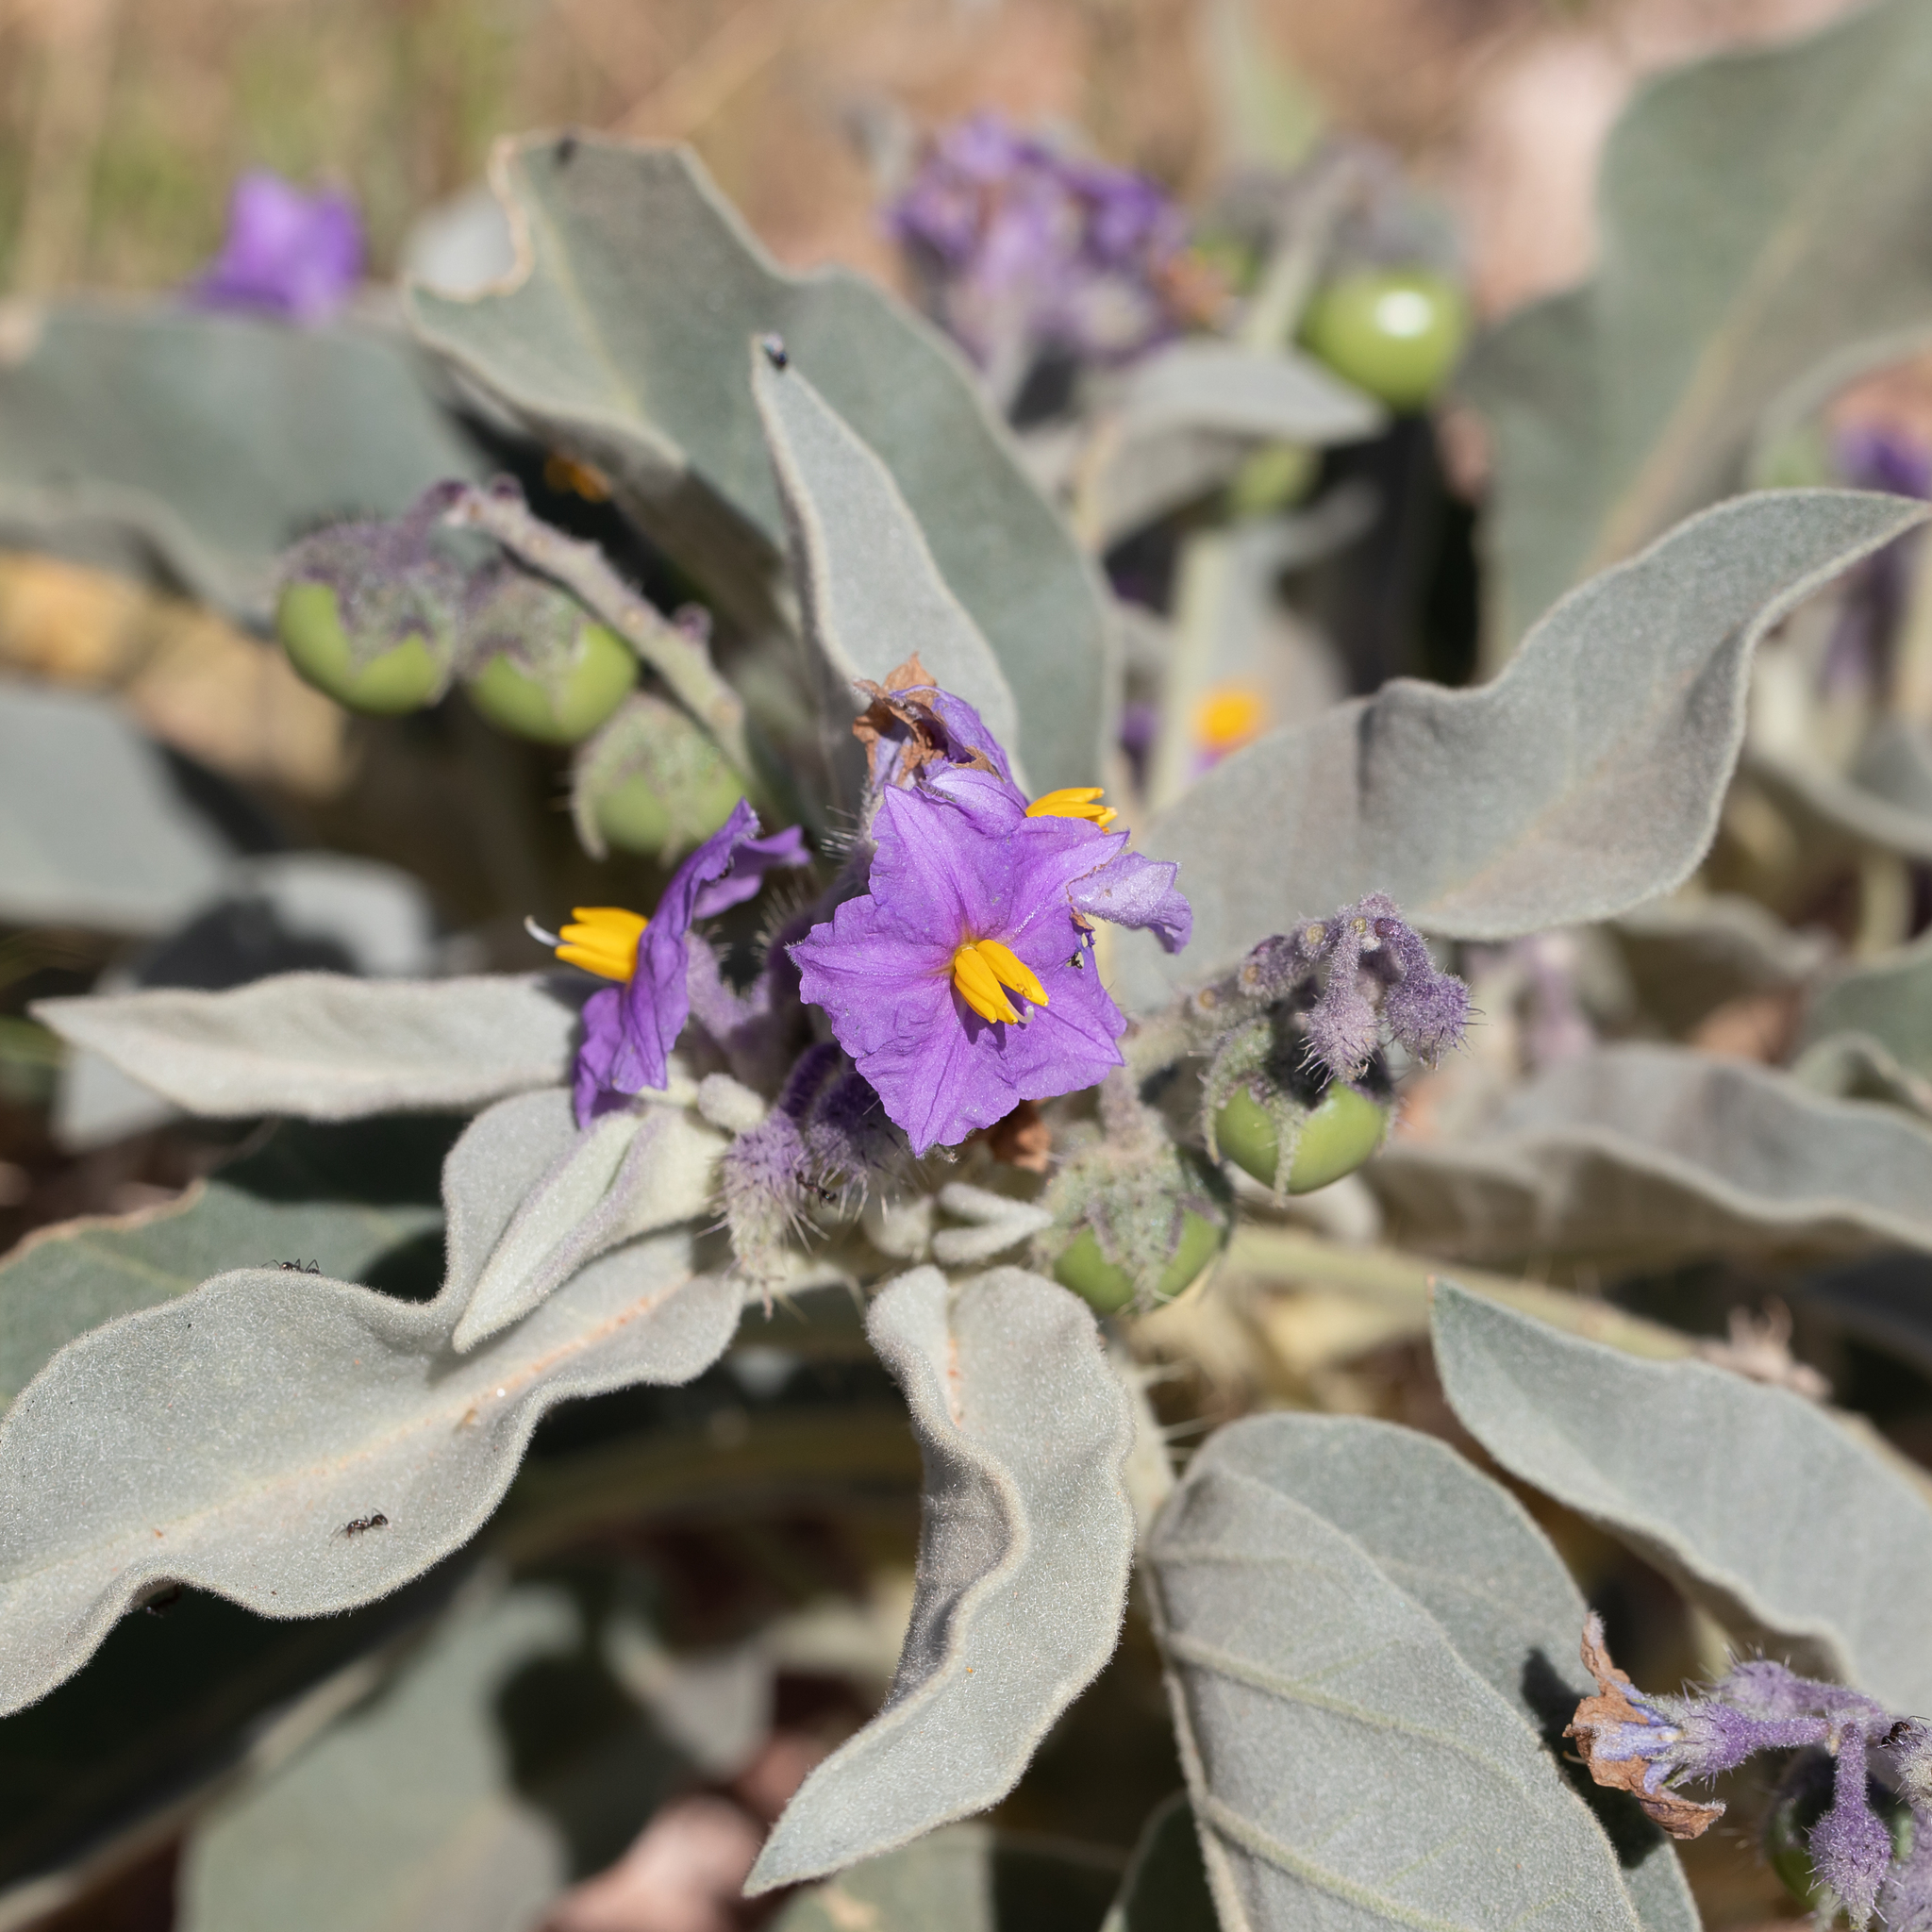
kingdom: Plantae
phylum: Tracheophyta
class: Magnoliopsida
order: Solanales
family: Solanaceae
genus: Solanum
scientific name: Solanum quadriloculatum
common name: Wild tomato
